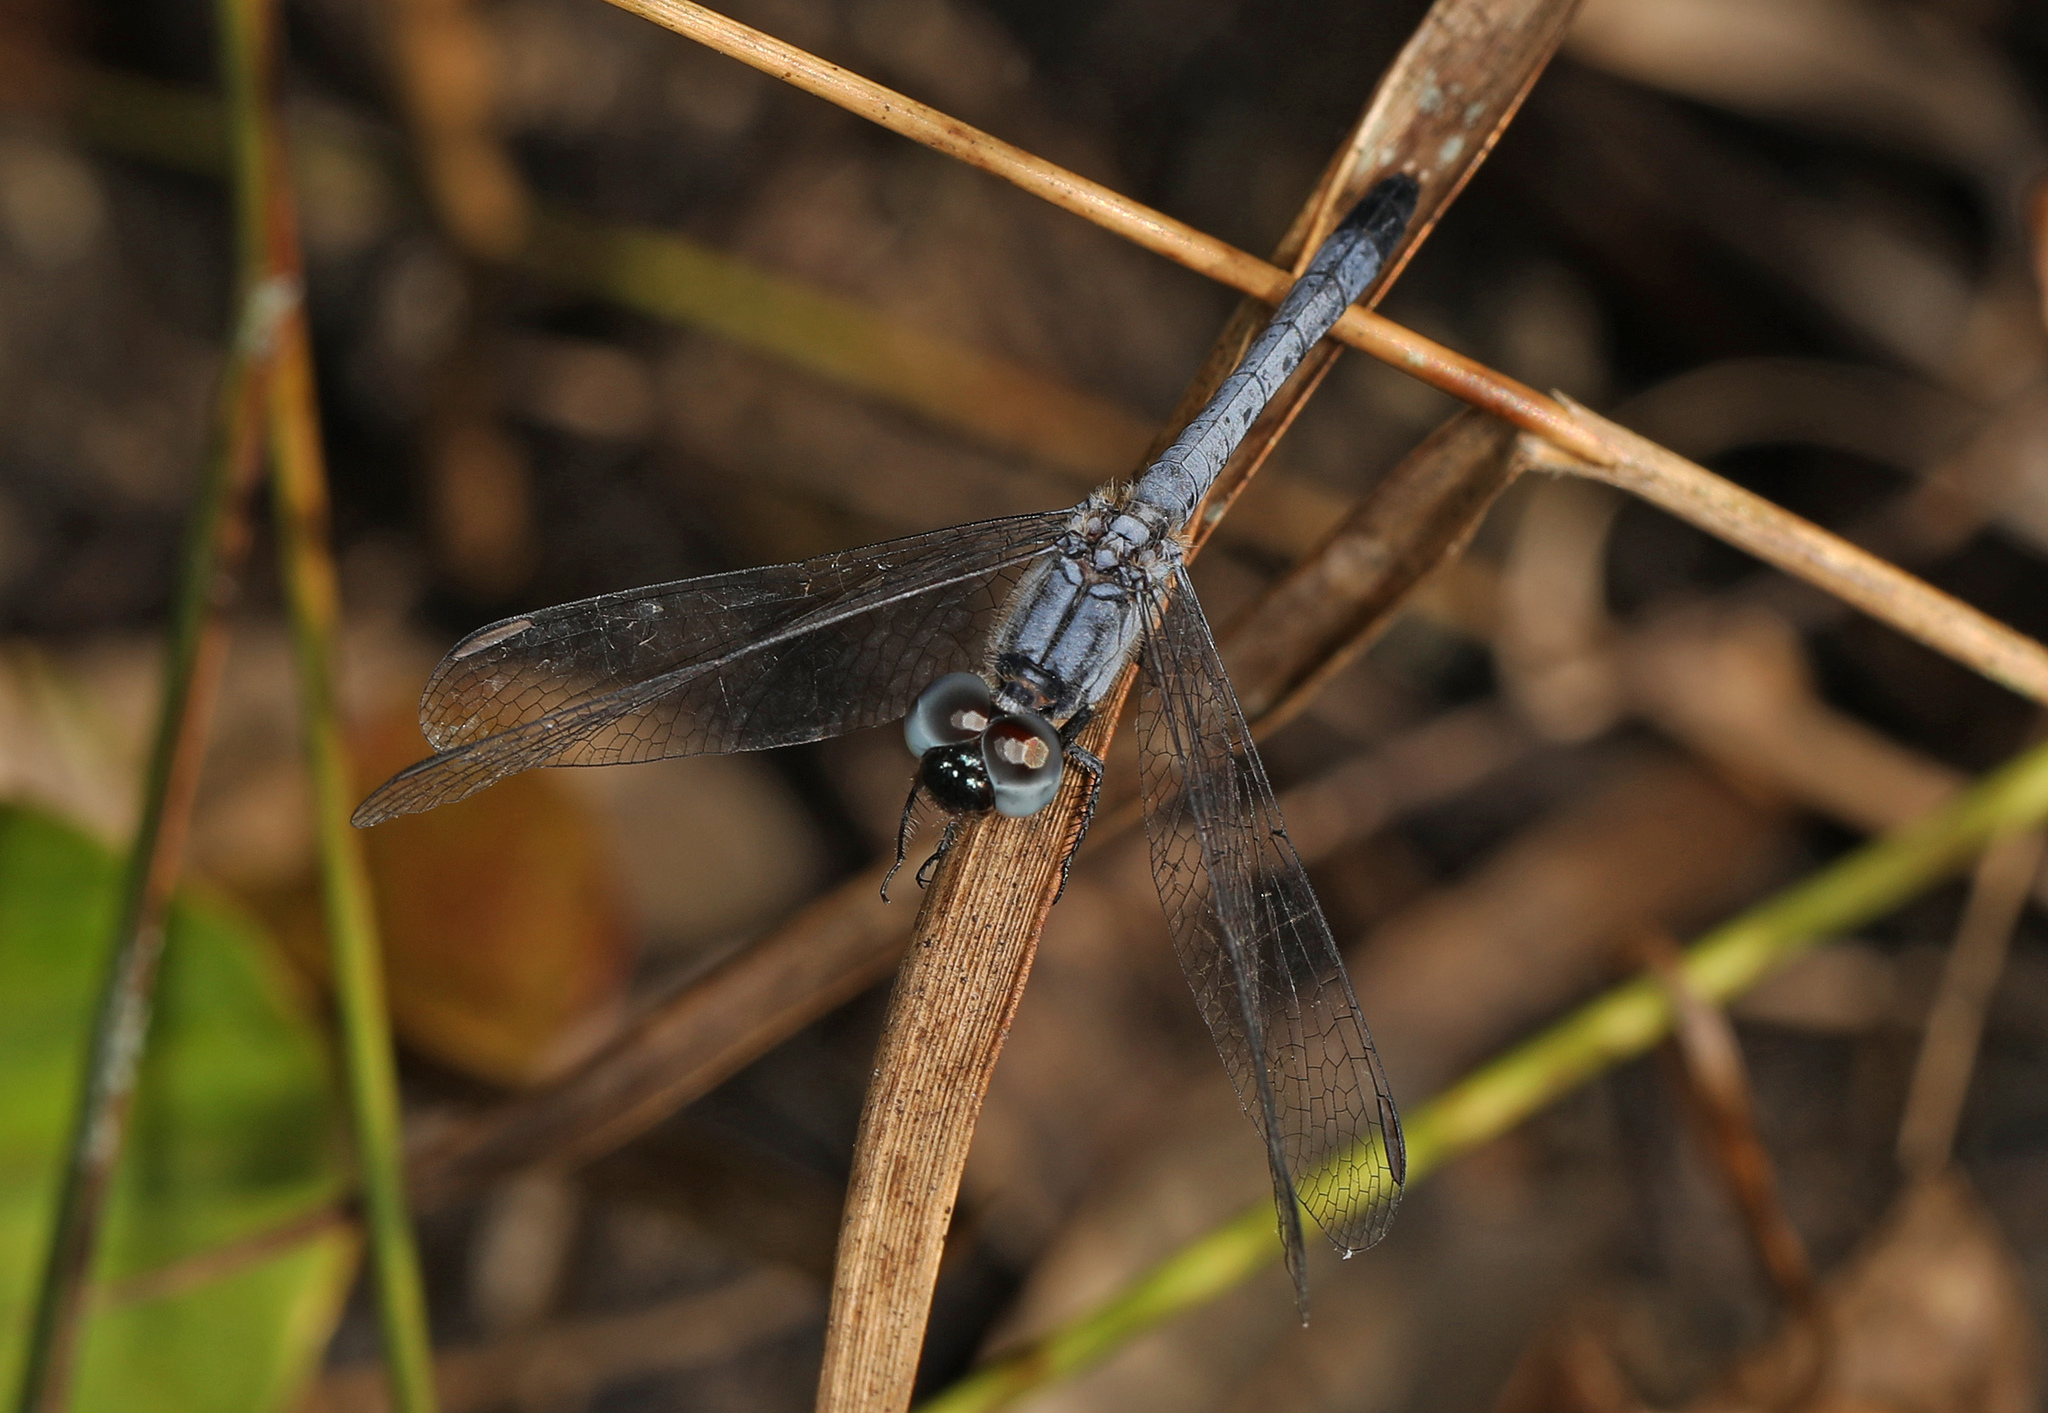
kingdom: Animalia
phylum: Arthropoda
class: Insecta
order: Odonata
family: Libellulidae
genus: Erythrodiplax
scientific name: Erythrodiplax minuscula
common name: Little blue dragonlet
